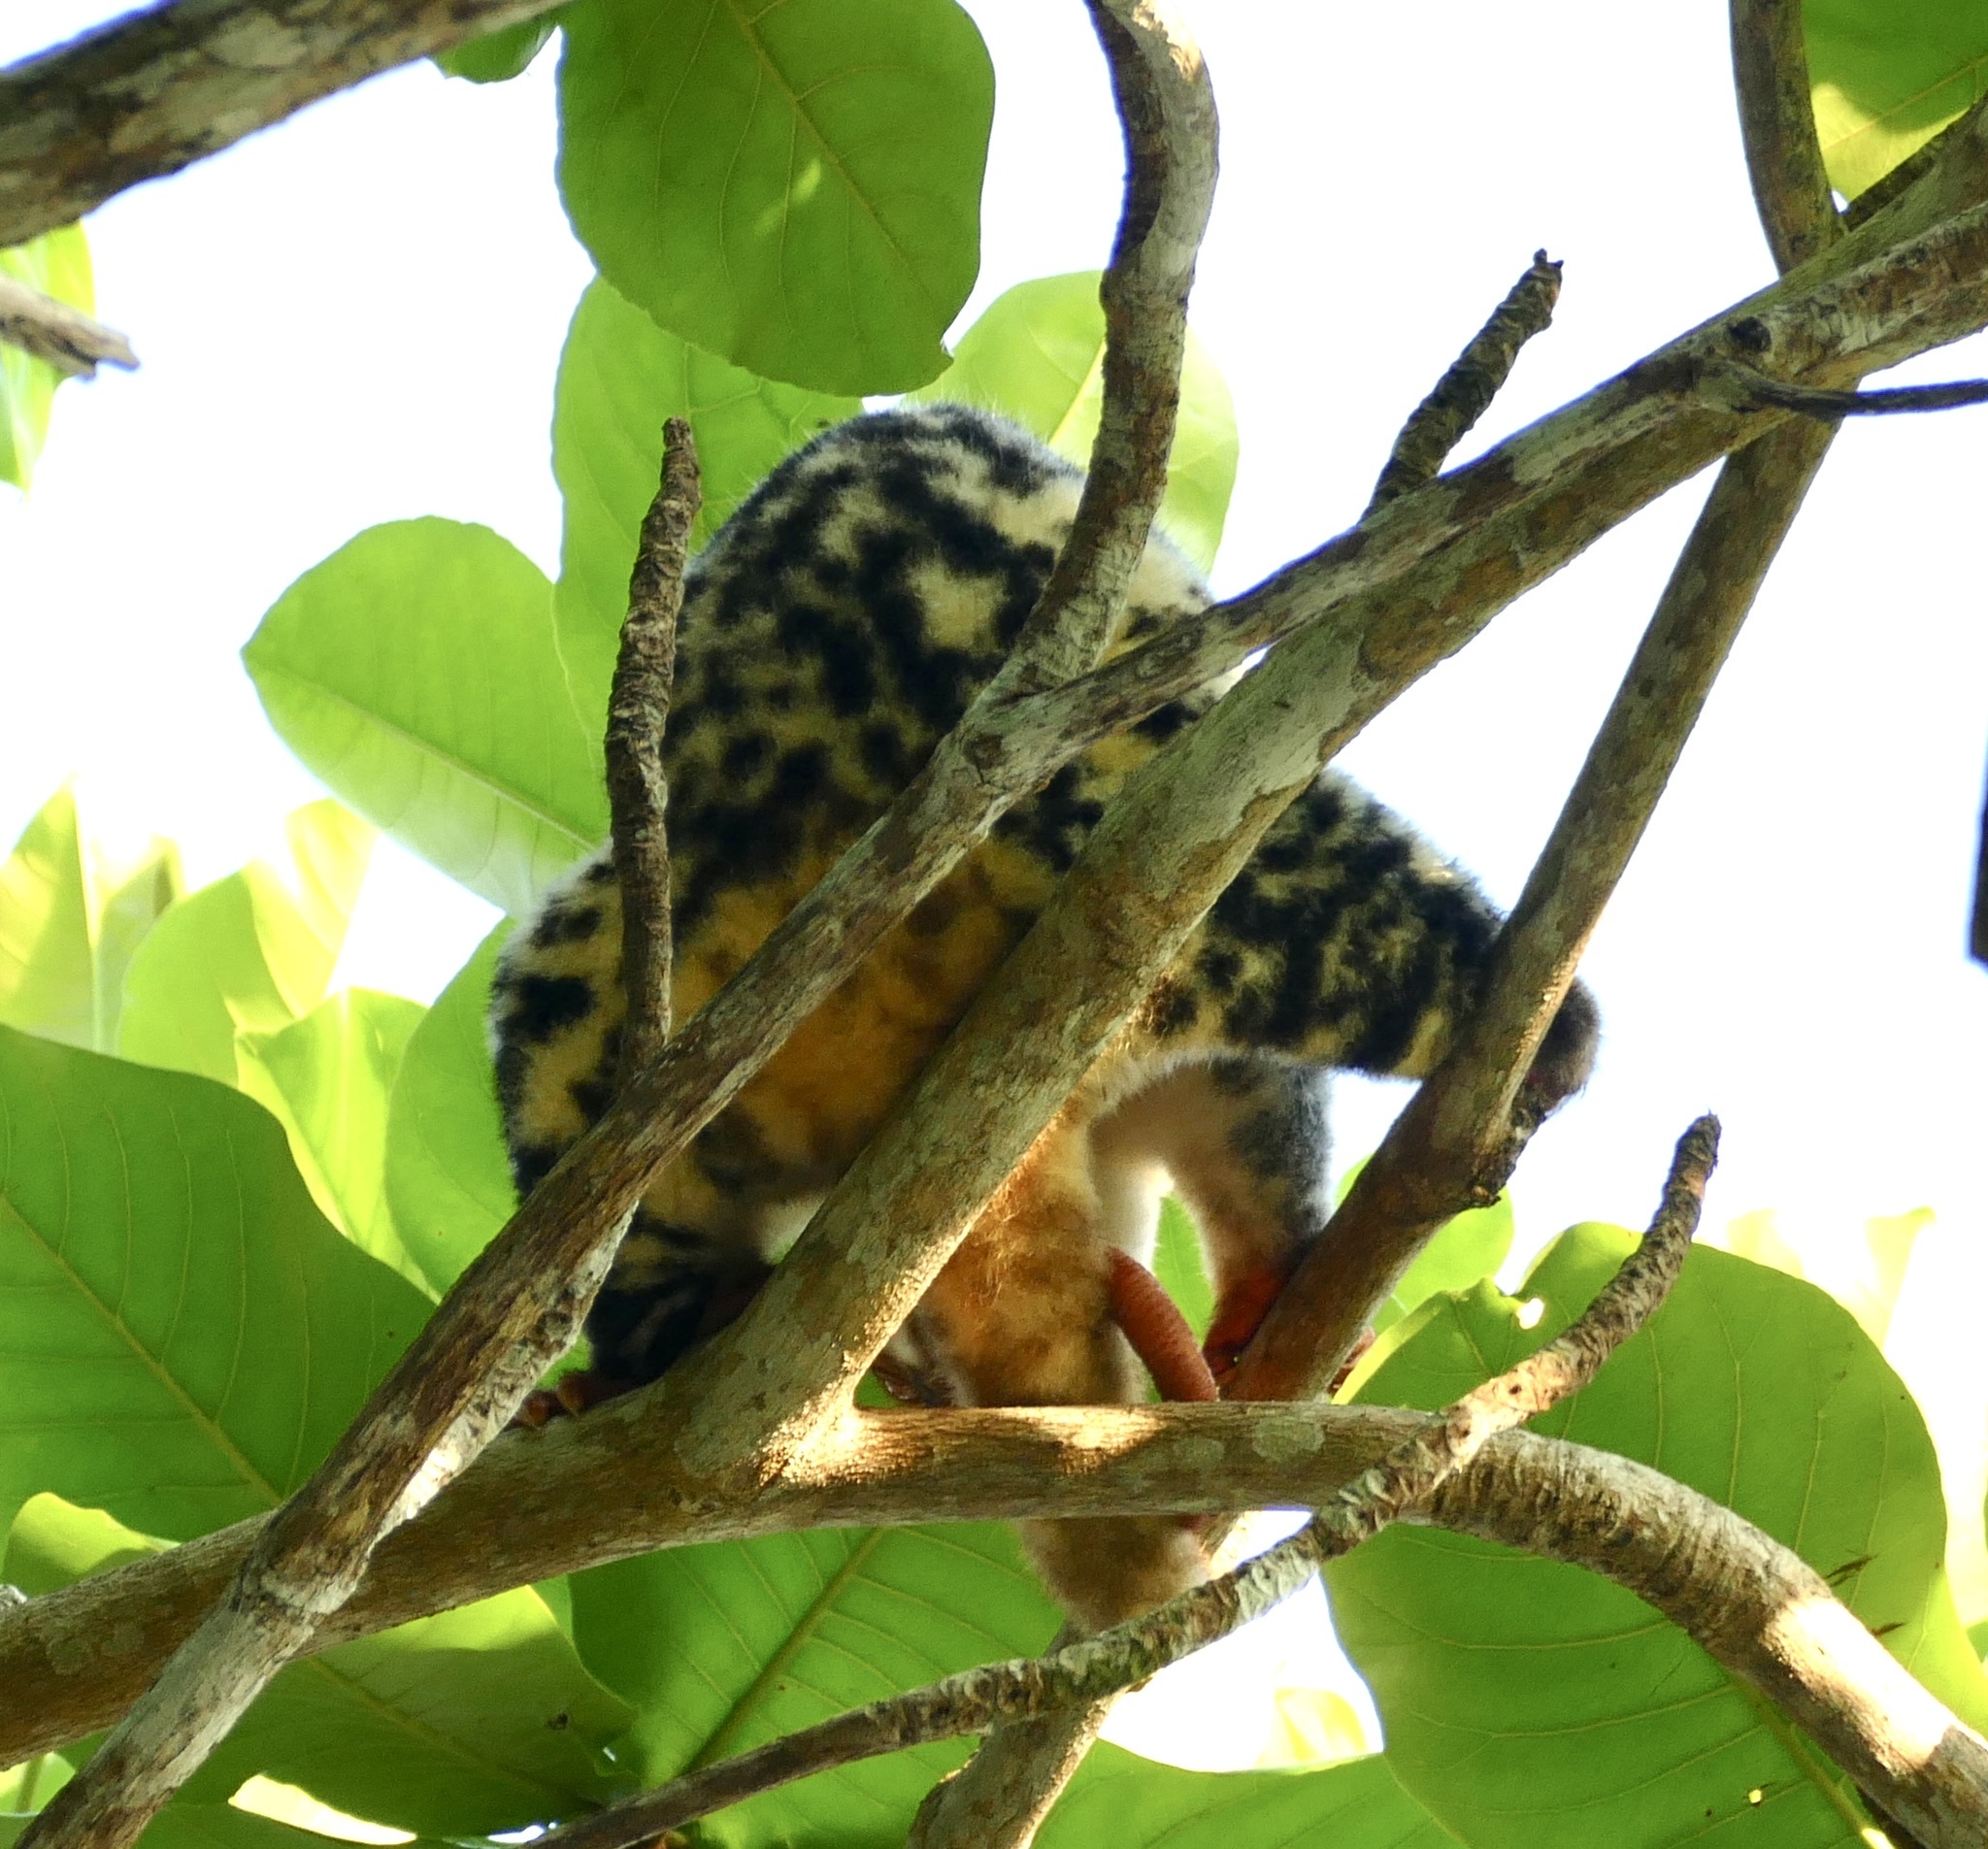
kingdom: Animalia
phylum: Chordata
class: Mammalia
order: Diprotodontia
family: Phalangeridae
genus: Spilocuscus
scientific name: Spilocuscus papuensis
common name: Waigeou cuscus
